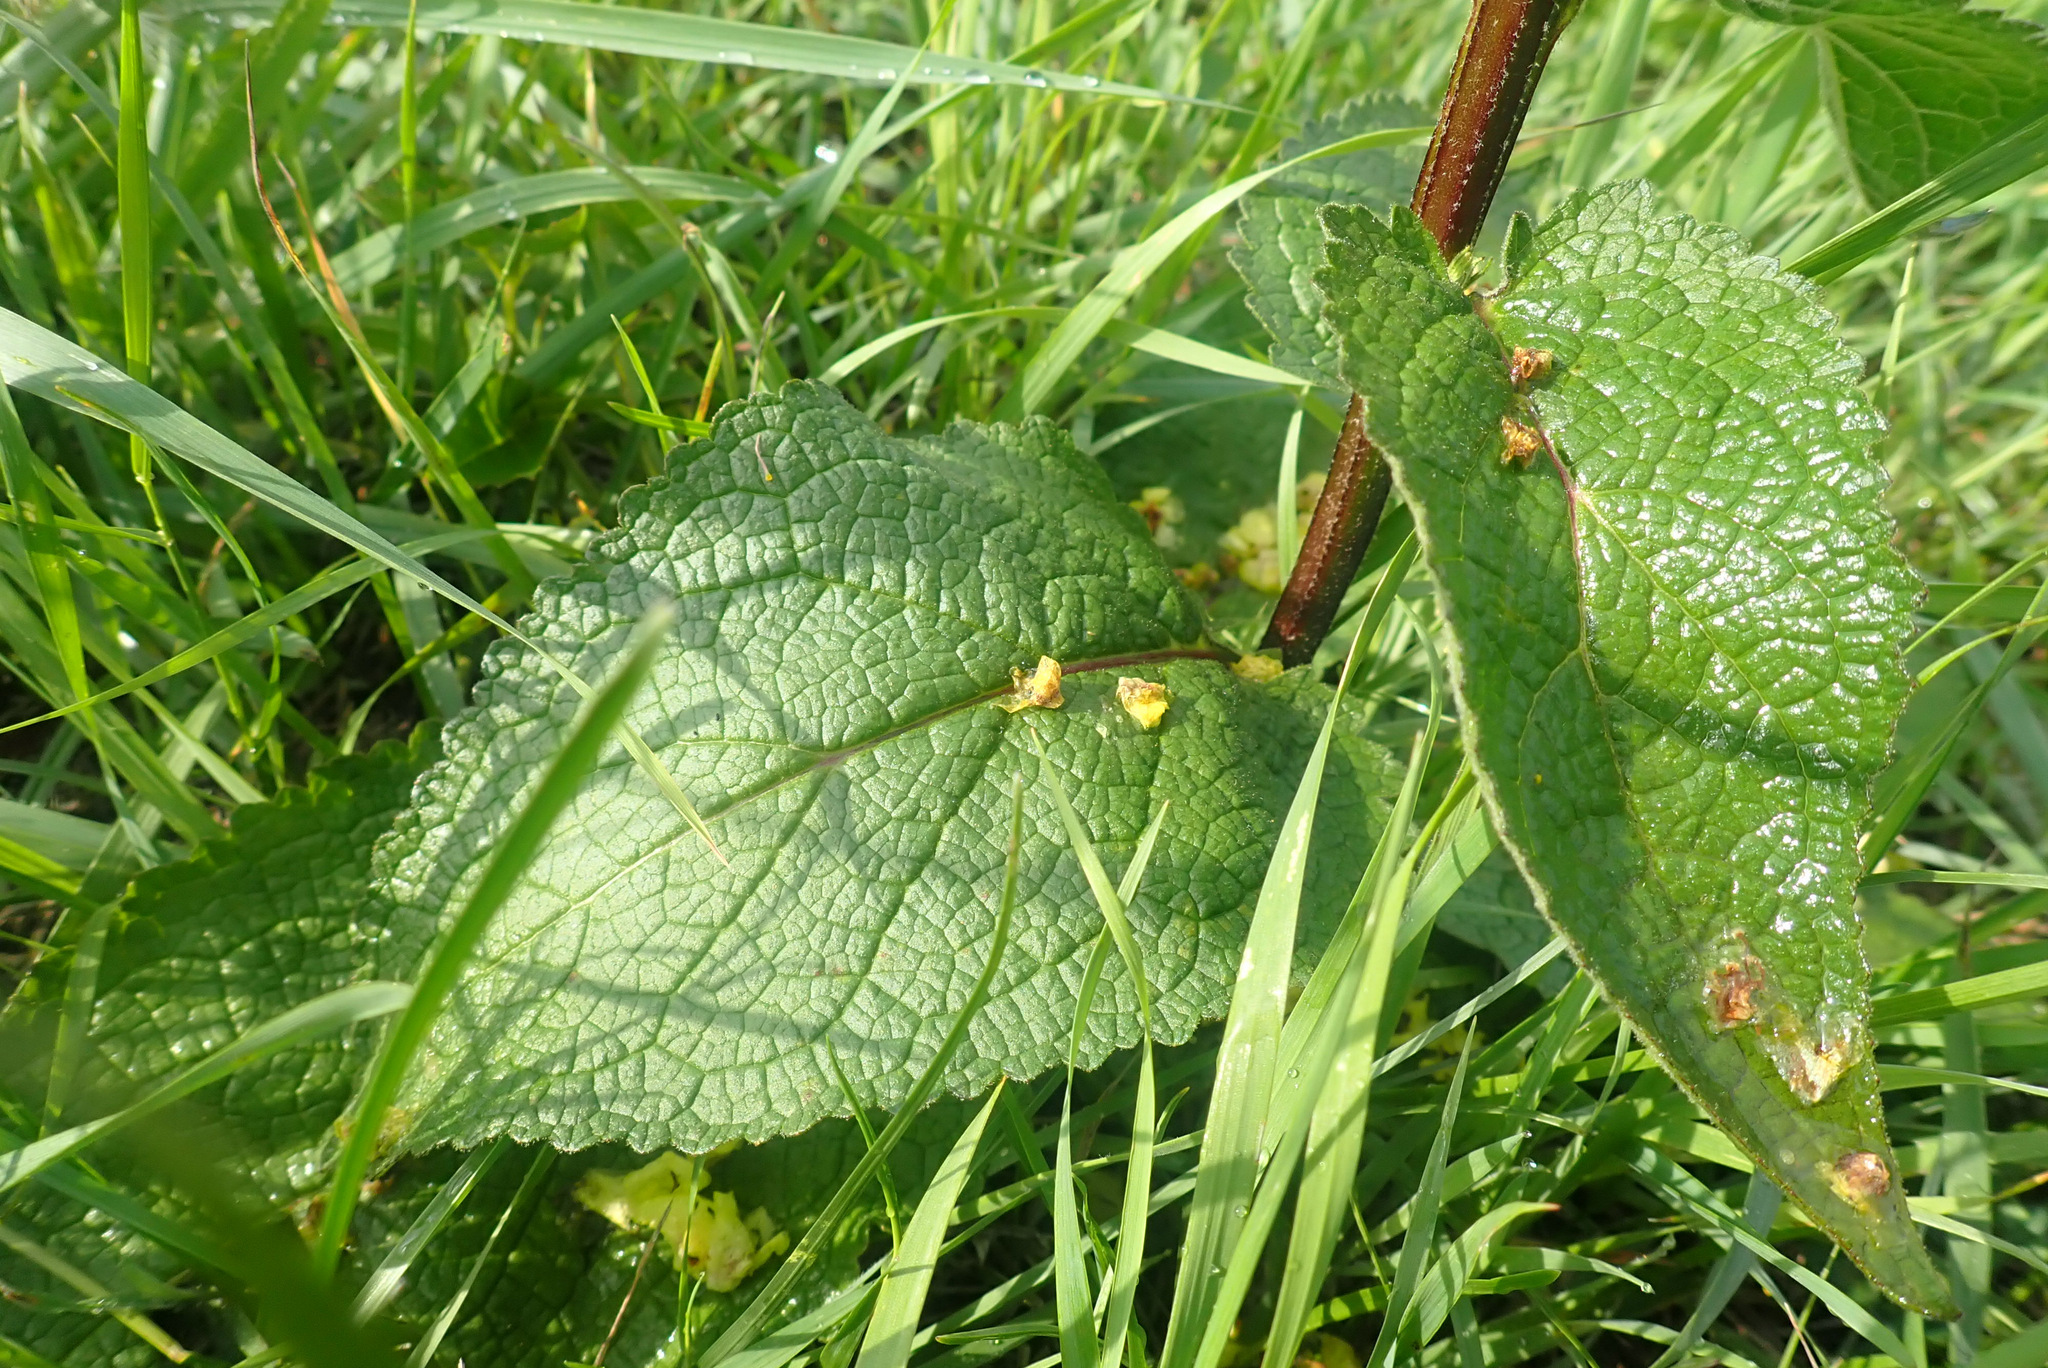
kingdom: Plantae
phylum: Tracheophyta
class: Magnoliopsida
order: Lamiales
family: Scrophulariaceae
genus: Verbascum
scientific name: Verbascum nigrum
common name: Dark mullein
